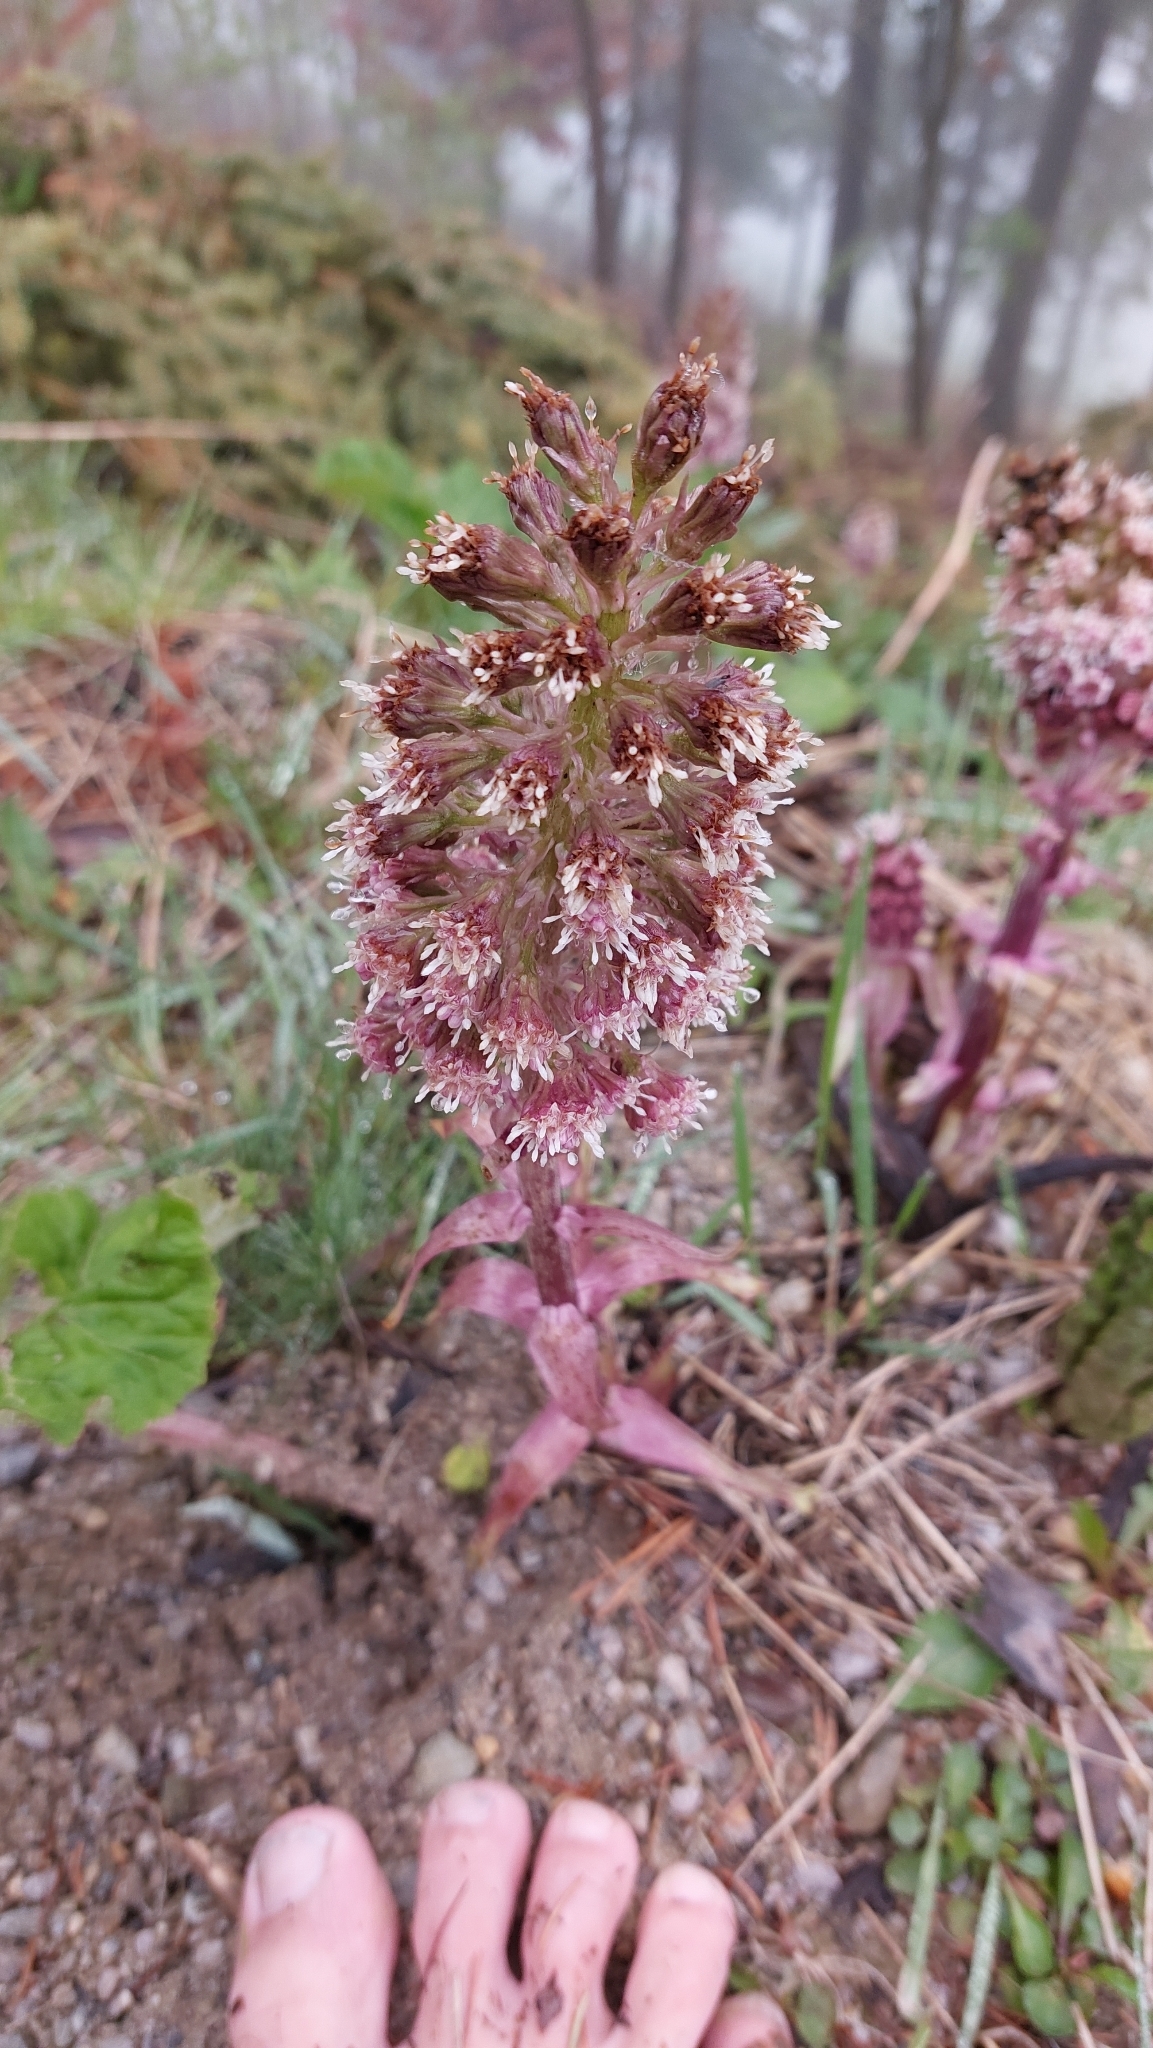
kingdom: Plantae
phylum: Tracheophyta
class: Magnoliopsida
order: Asterales
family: Asteraceae
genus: Petasites
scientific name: Petasites hybridus
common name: Butterbur
